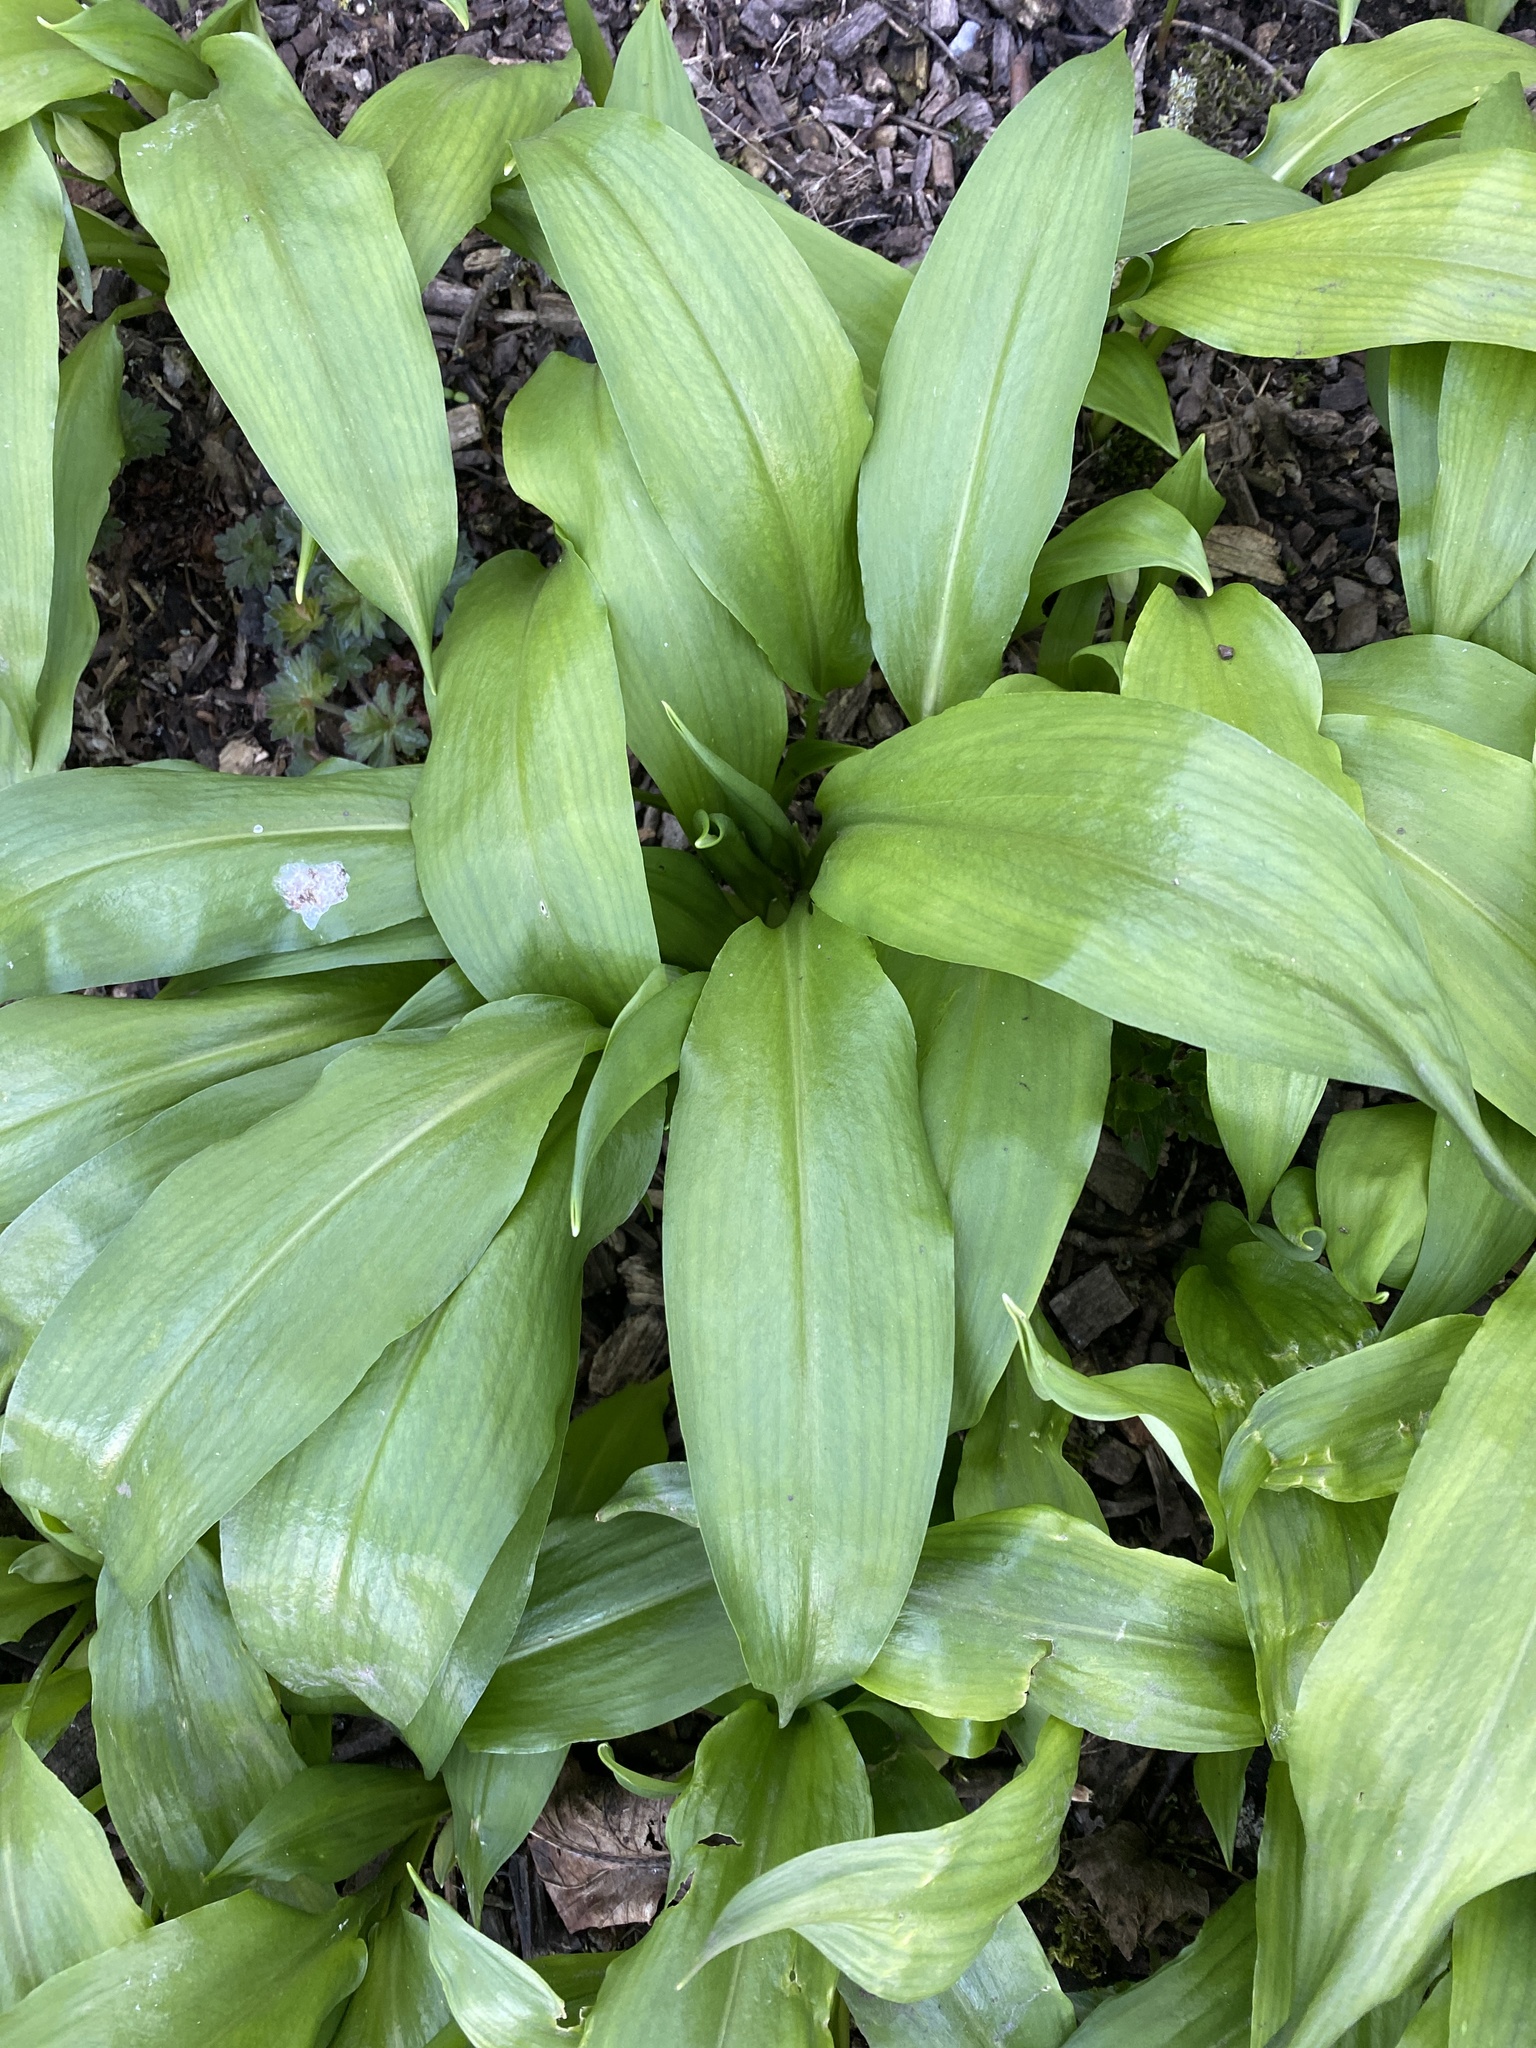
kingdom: Plantae
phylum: Tracheophyta
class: Liliopsida
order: Asparagales
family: Amaryllidaceae
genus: Allium
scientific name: Allium ursinum
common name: Ramsons
